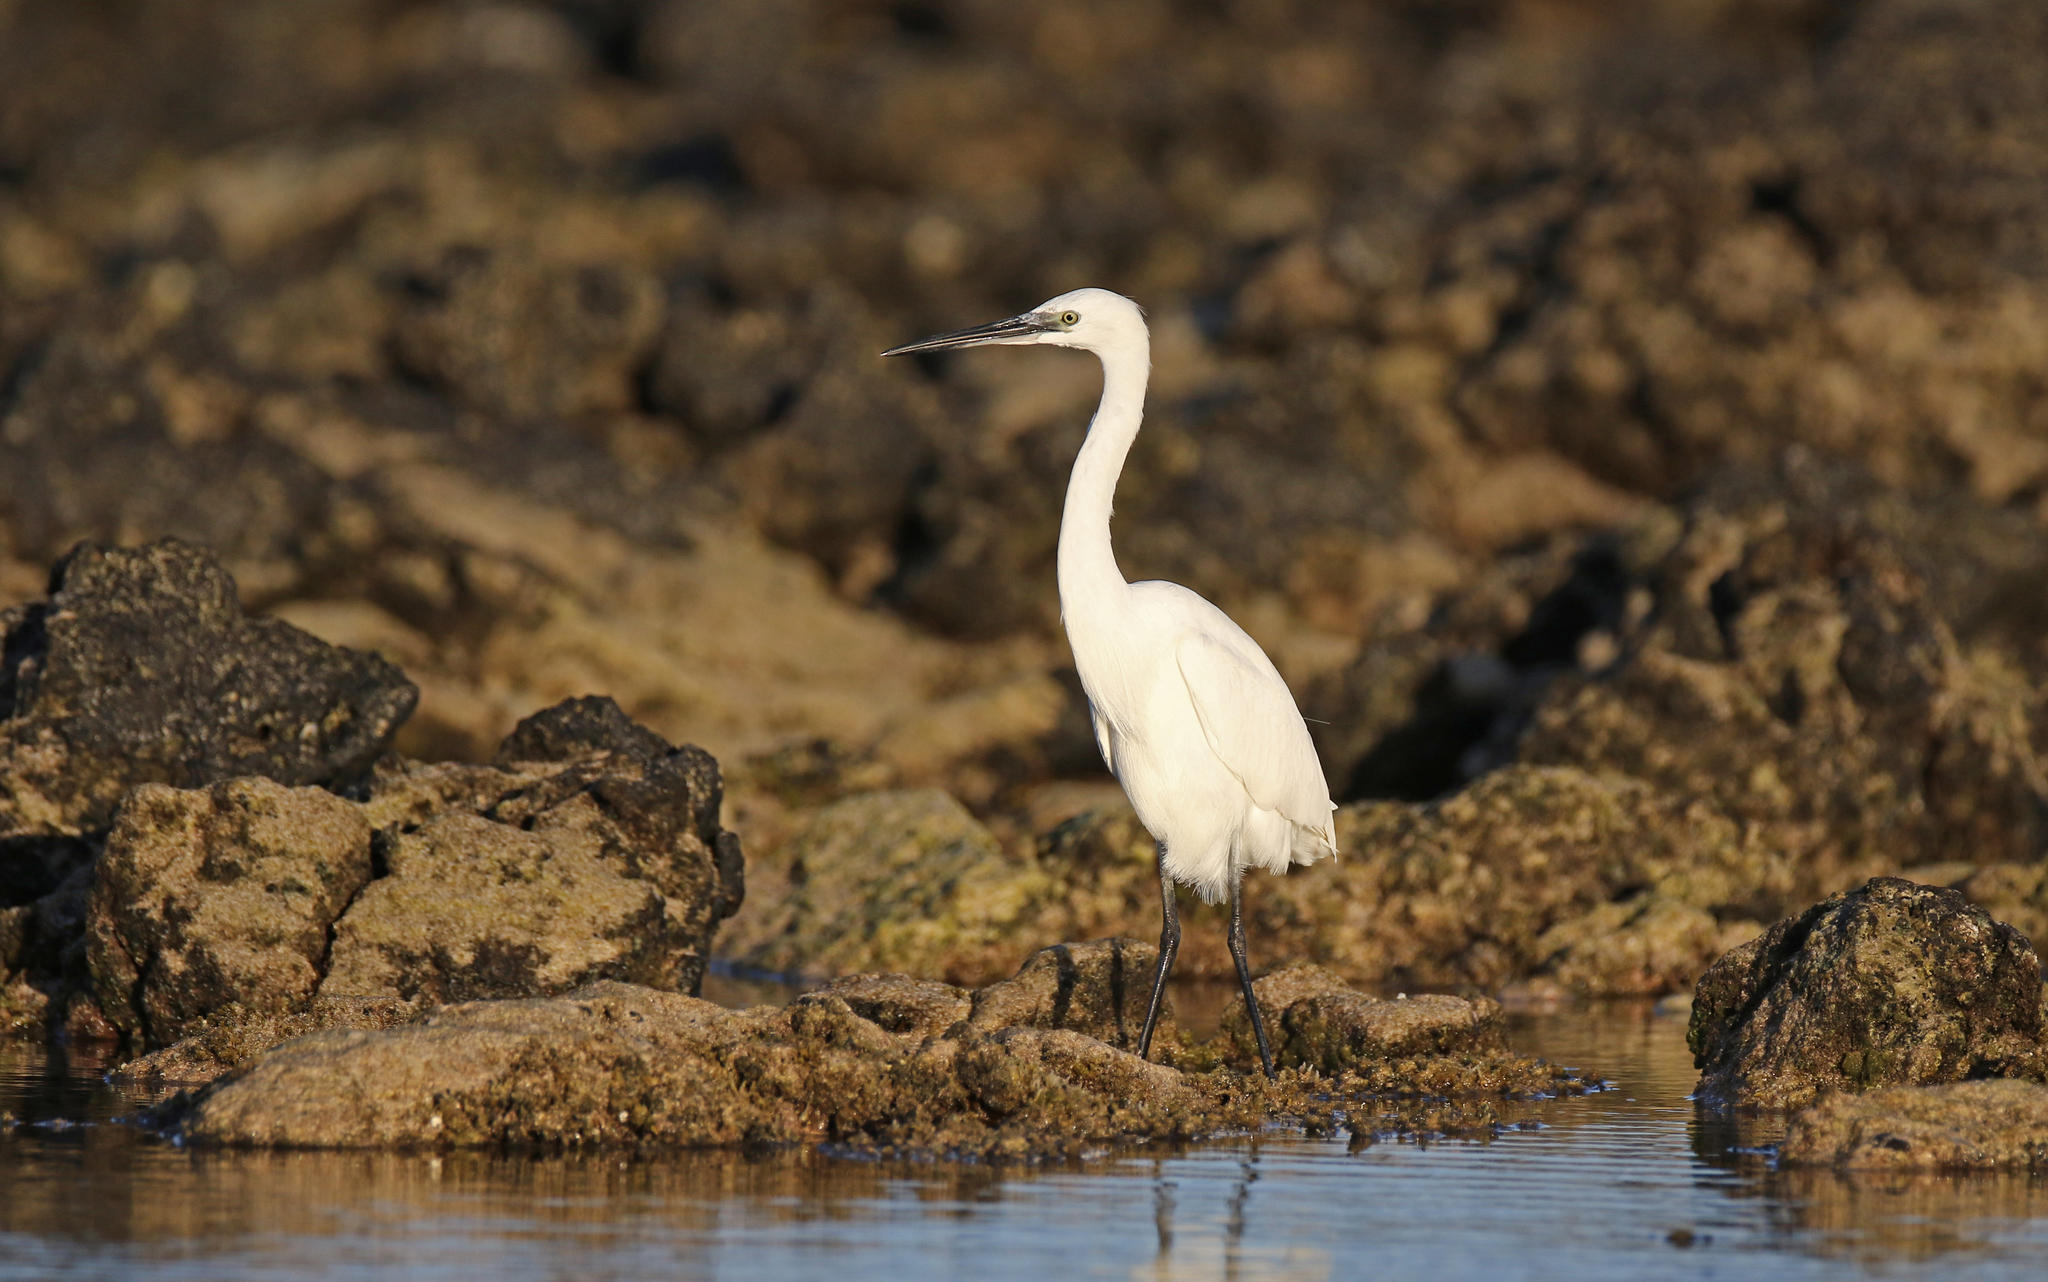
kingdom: Animalia
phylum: Chordata
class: Aves
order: Pelecaniformes
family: Ardeidae
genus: Egretta
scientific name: Egretta garzetta
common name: Little egret
